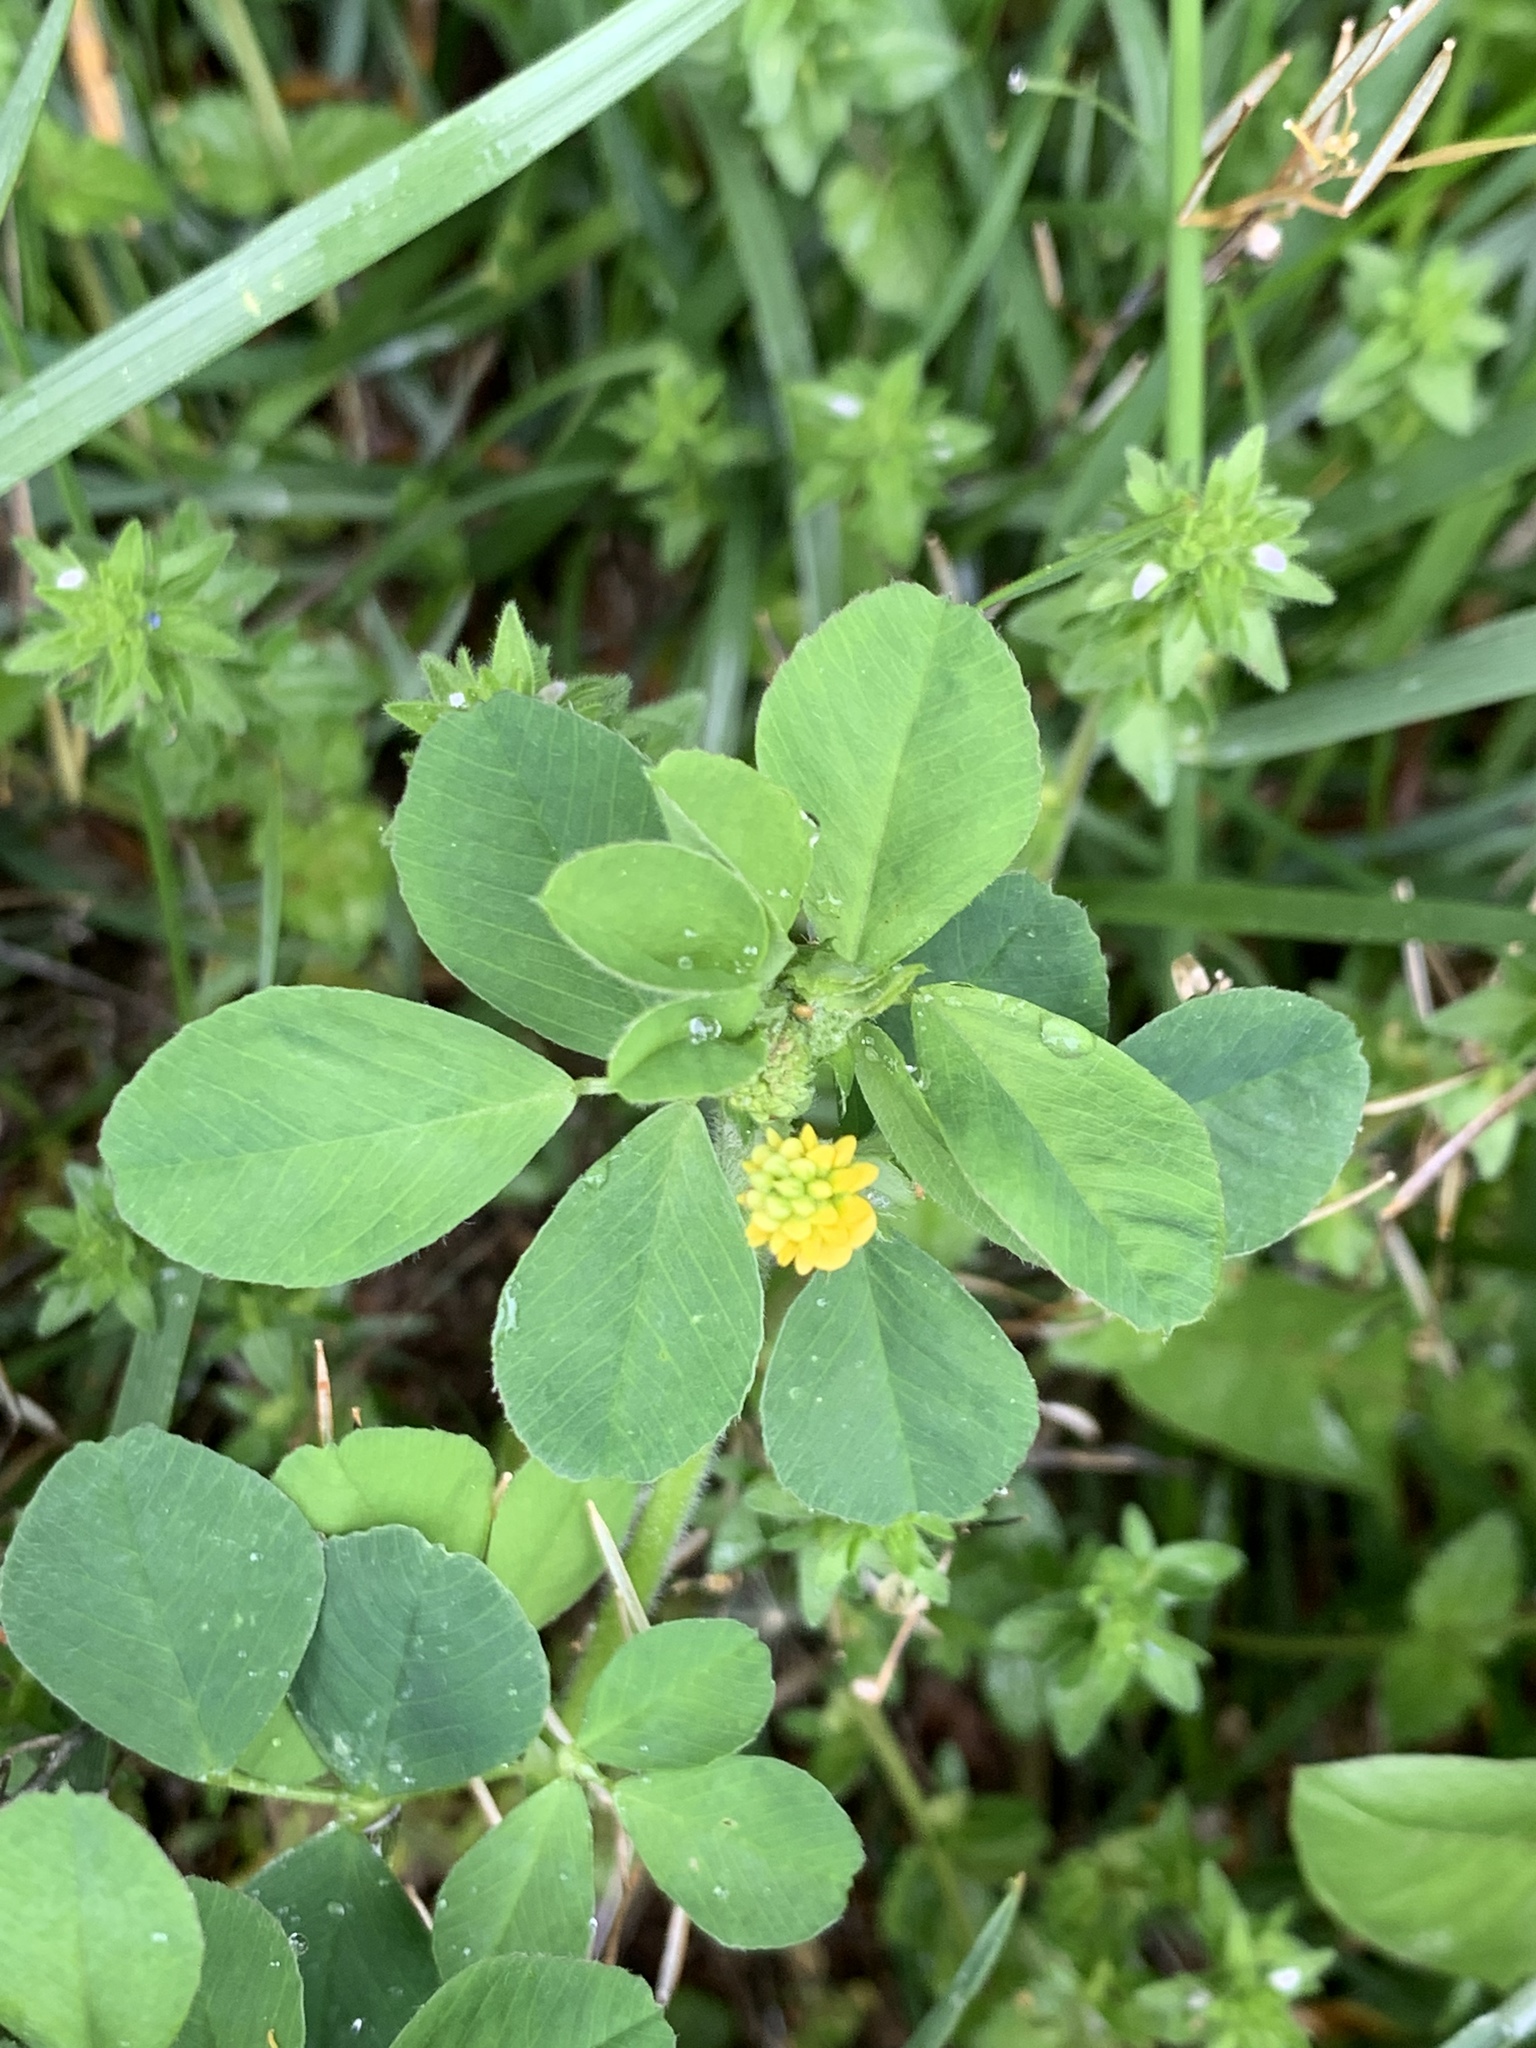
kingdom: Plantae
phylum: Tracheophyta
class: Magnoliopsida
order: Fabales
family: Fabaceae
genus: Medicago
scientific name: Medicago lupulina
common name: Black medick
